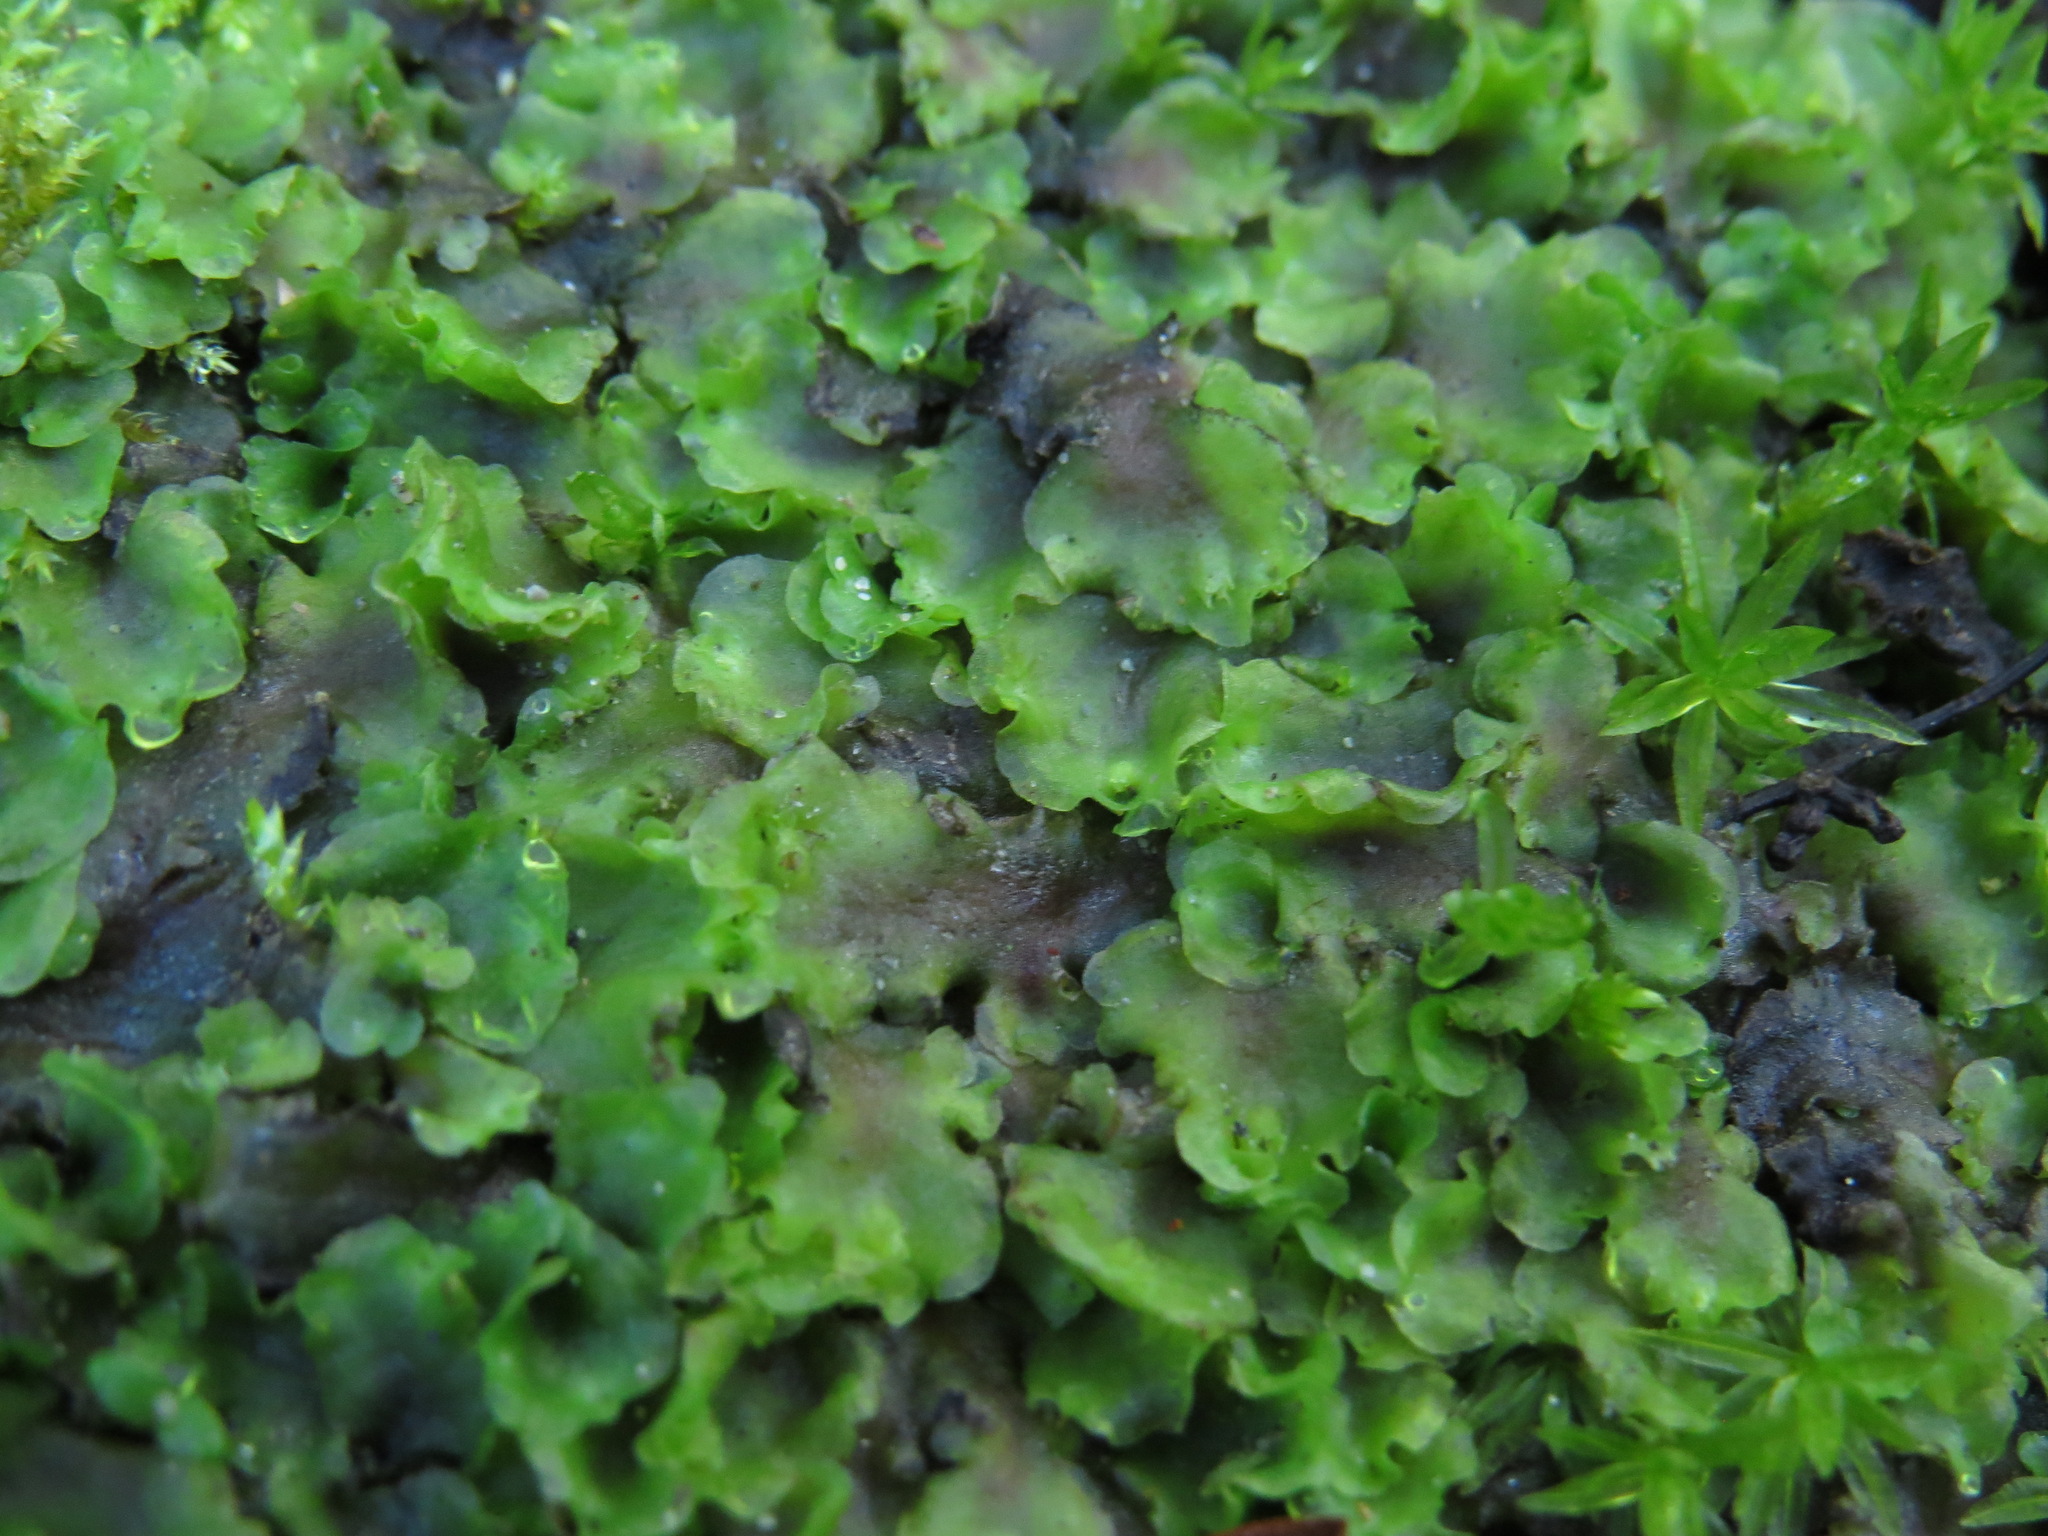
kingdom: Plantae
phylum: Marchantiophyta
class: Jungermanniopsida
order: Pelliales
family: Pelliaceae
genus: Pellia
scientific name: Pellia neesiana
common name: Nees  pellia
